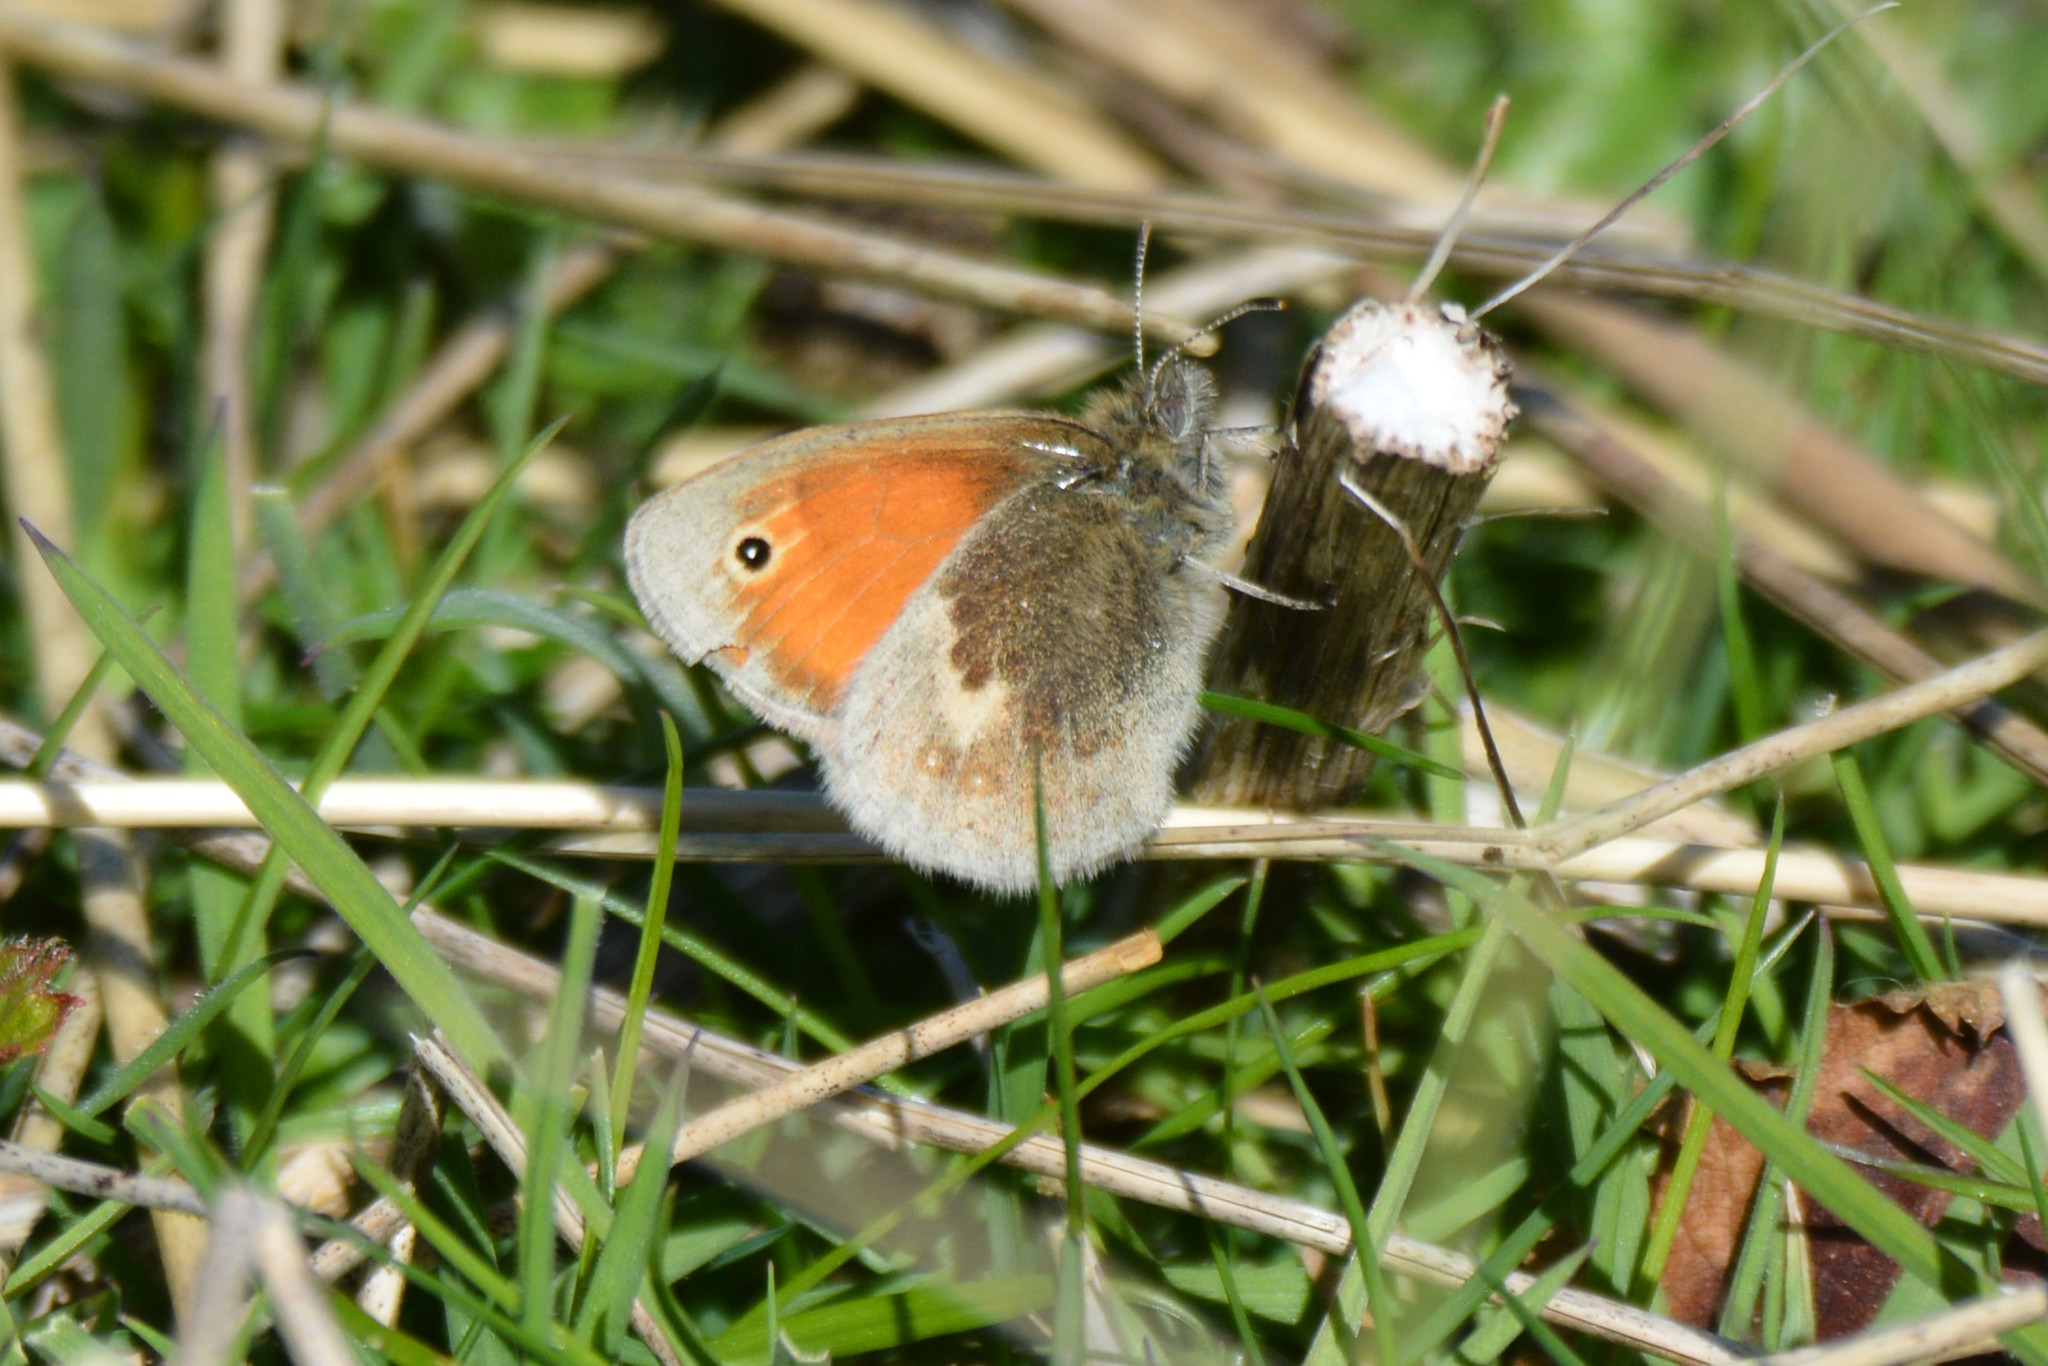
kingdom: Animalia
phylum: Arthropoda
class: Insecta
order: Lepidoptera
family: Nymphalidae
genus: Coenonympha
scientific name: Coenonympha pamphilus
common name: Small heath
